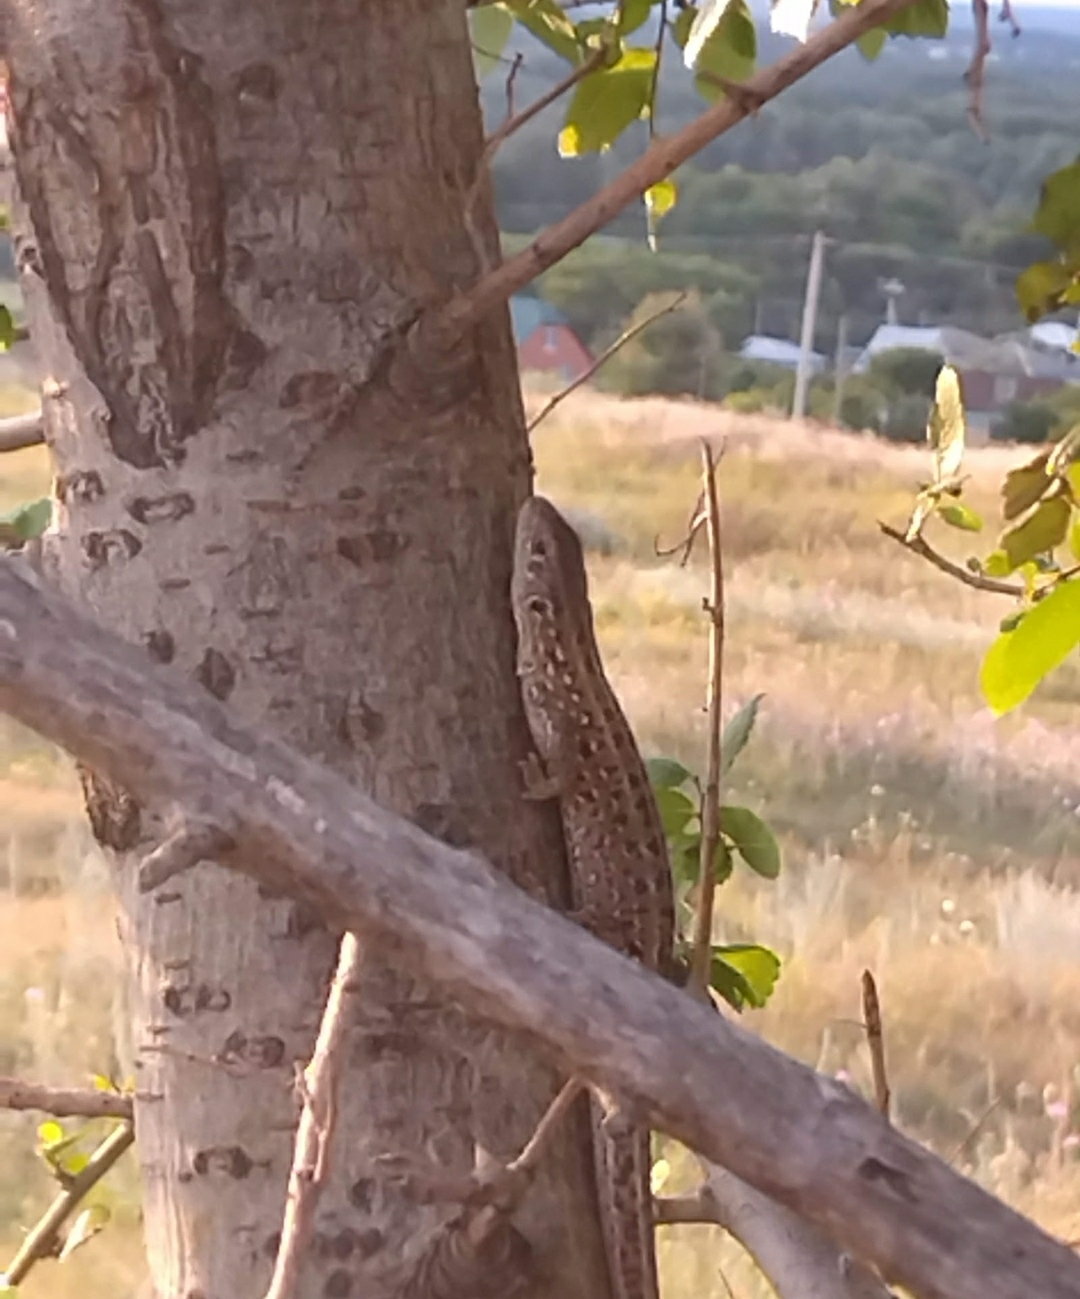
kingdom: Animalia
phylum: Chordata
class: Squamata
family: Lacertidae
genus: Lacerta
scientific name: Lacerta agilis
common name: Sand lizard
